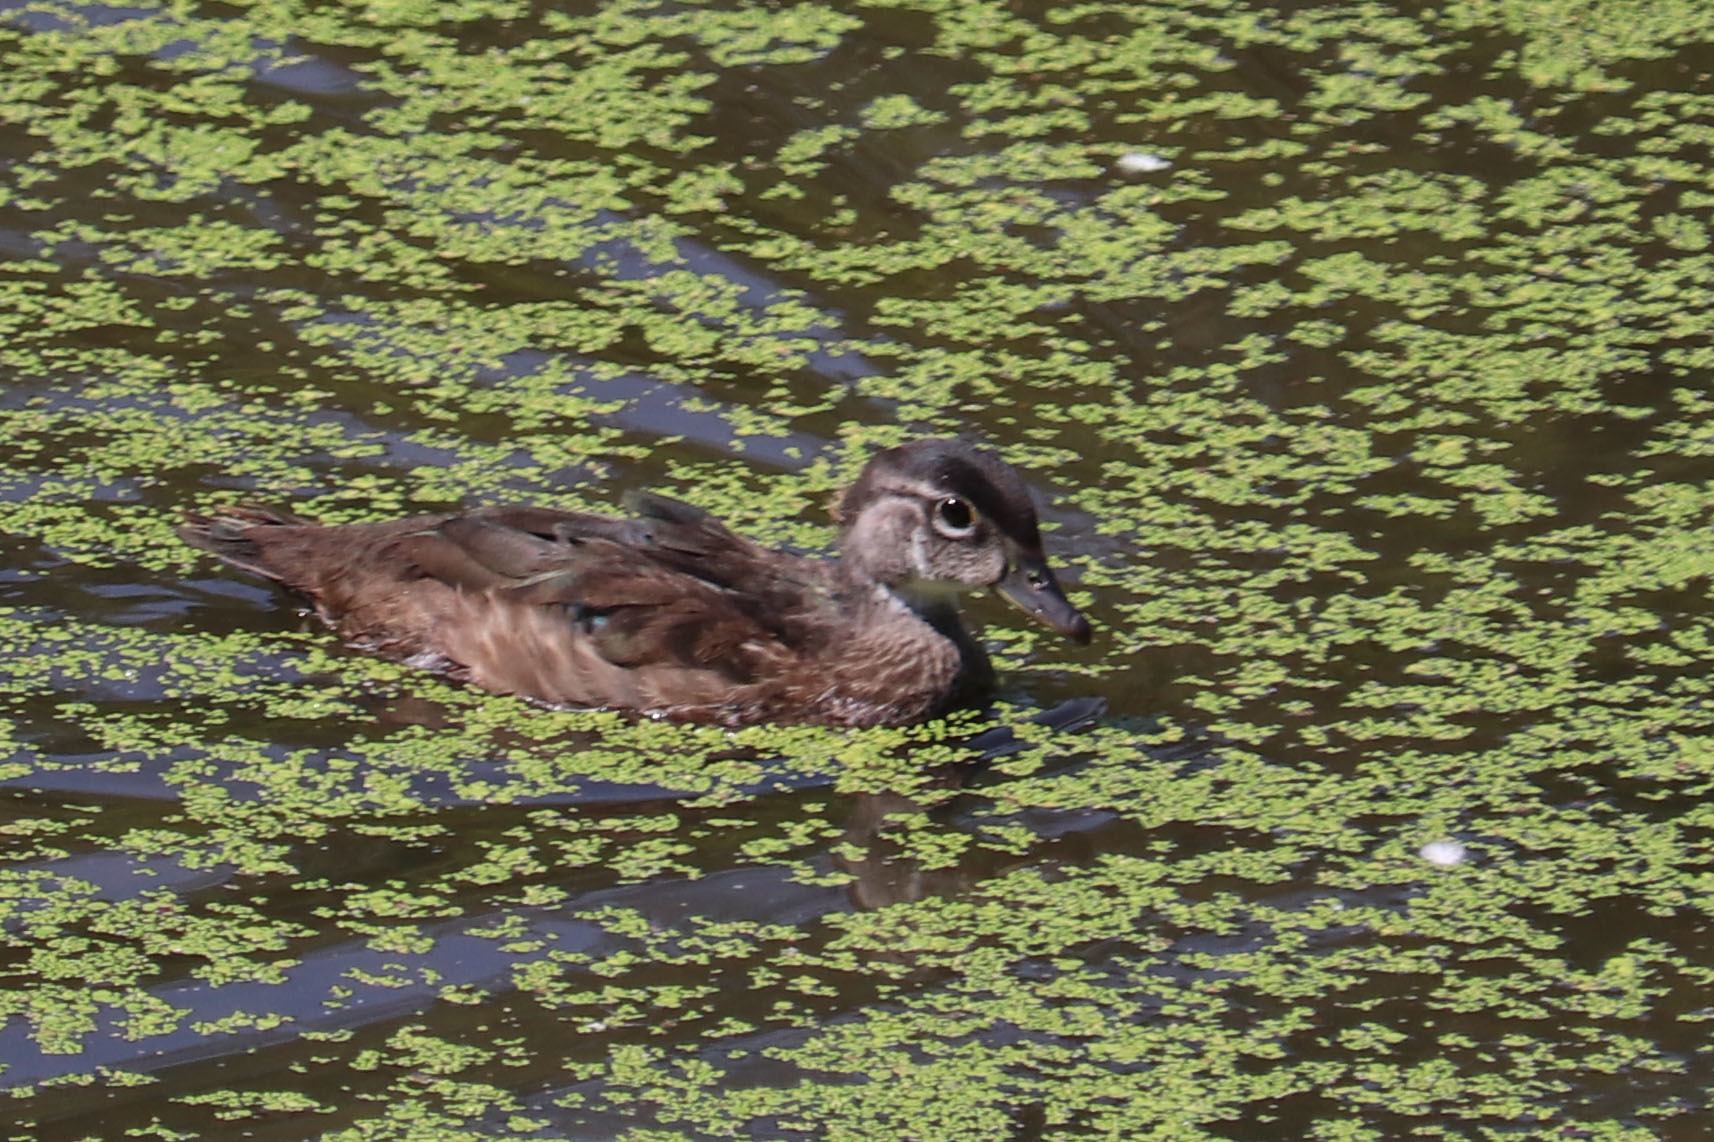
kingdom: Animalia
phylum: Chordata
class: Aves
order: Anseriformes
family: Anatidae
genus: Aix
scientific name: Aix sponsa
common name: Wood duck
